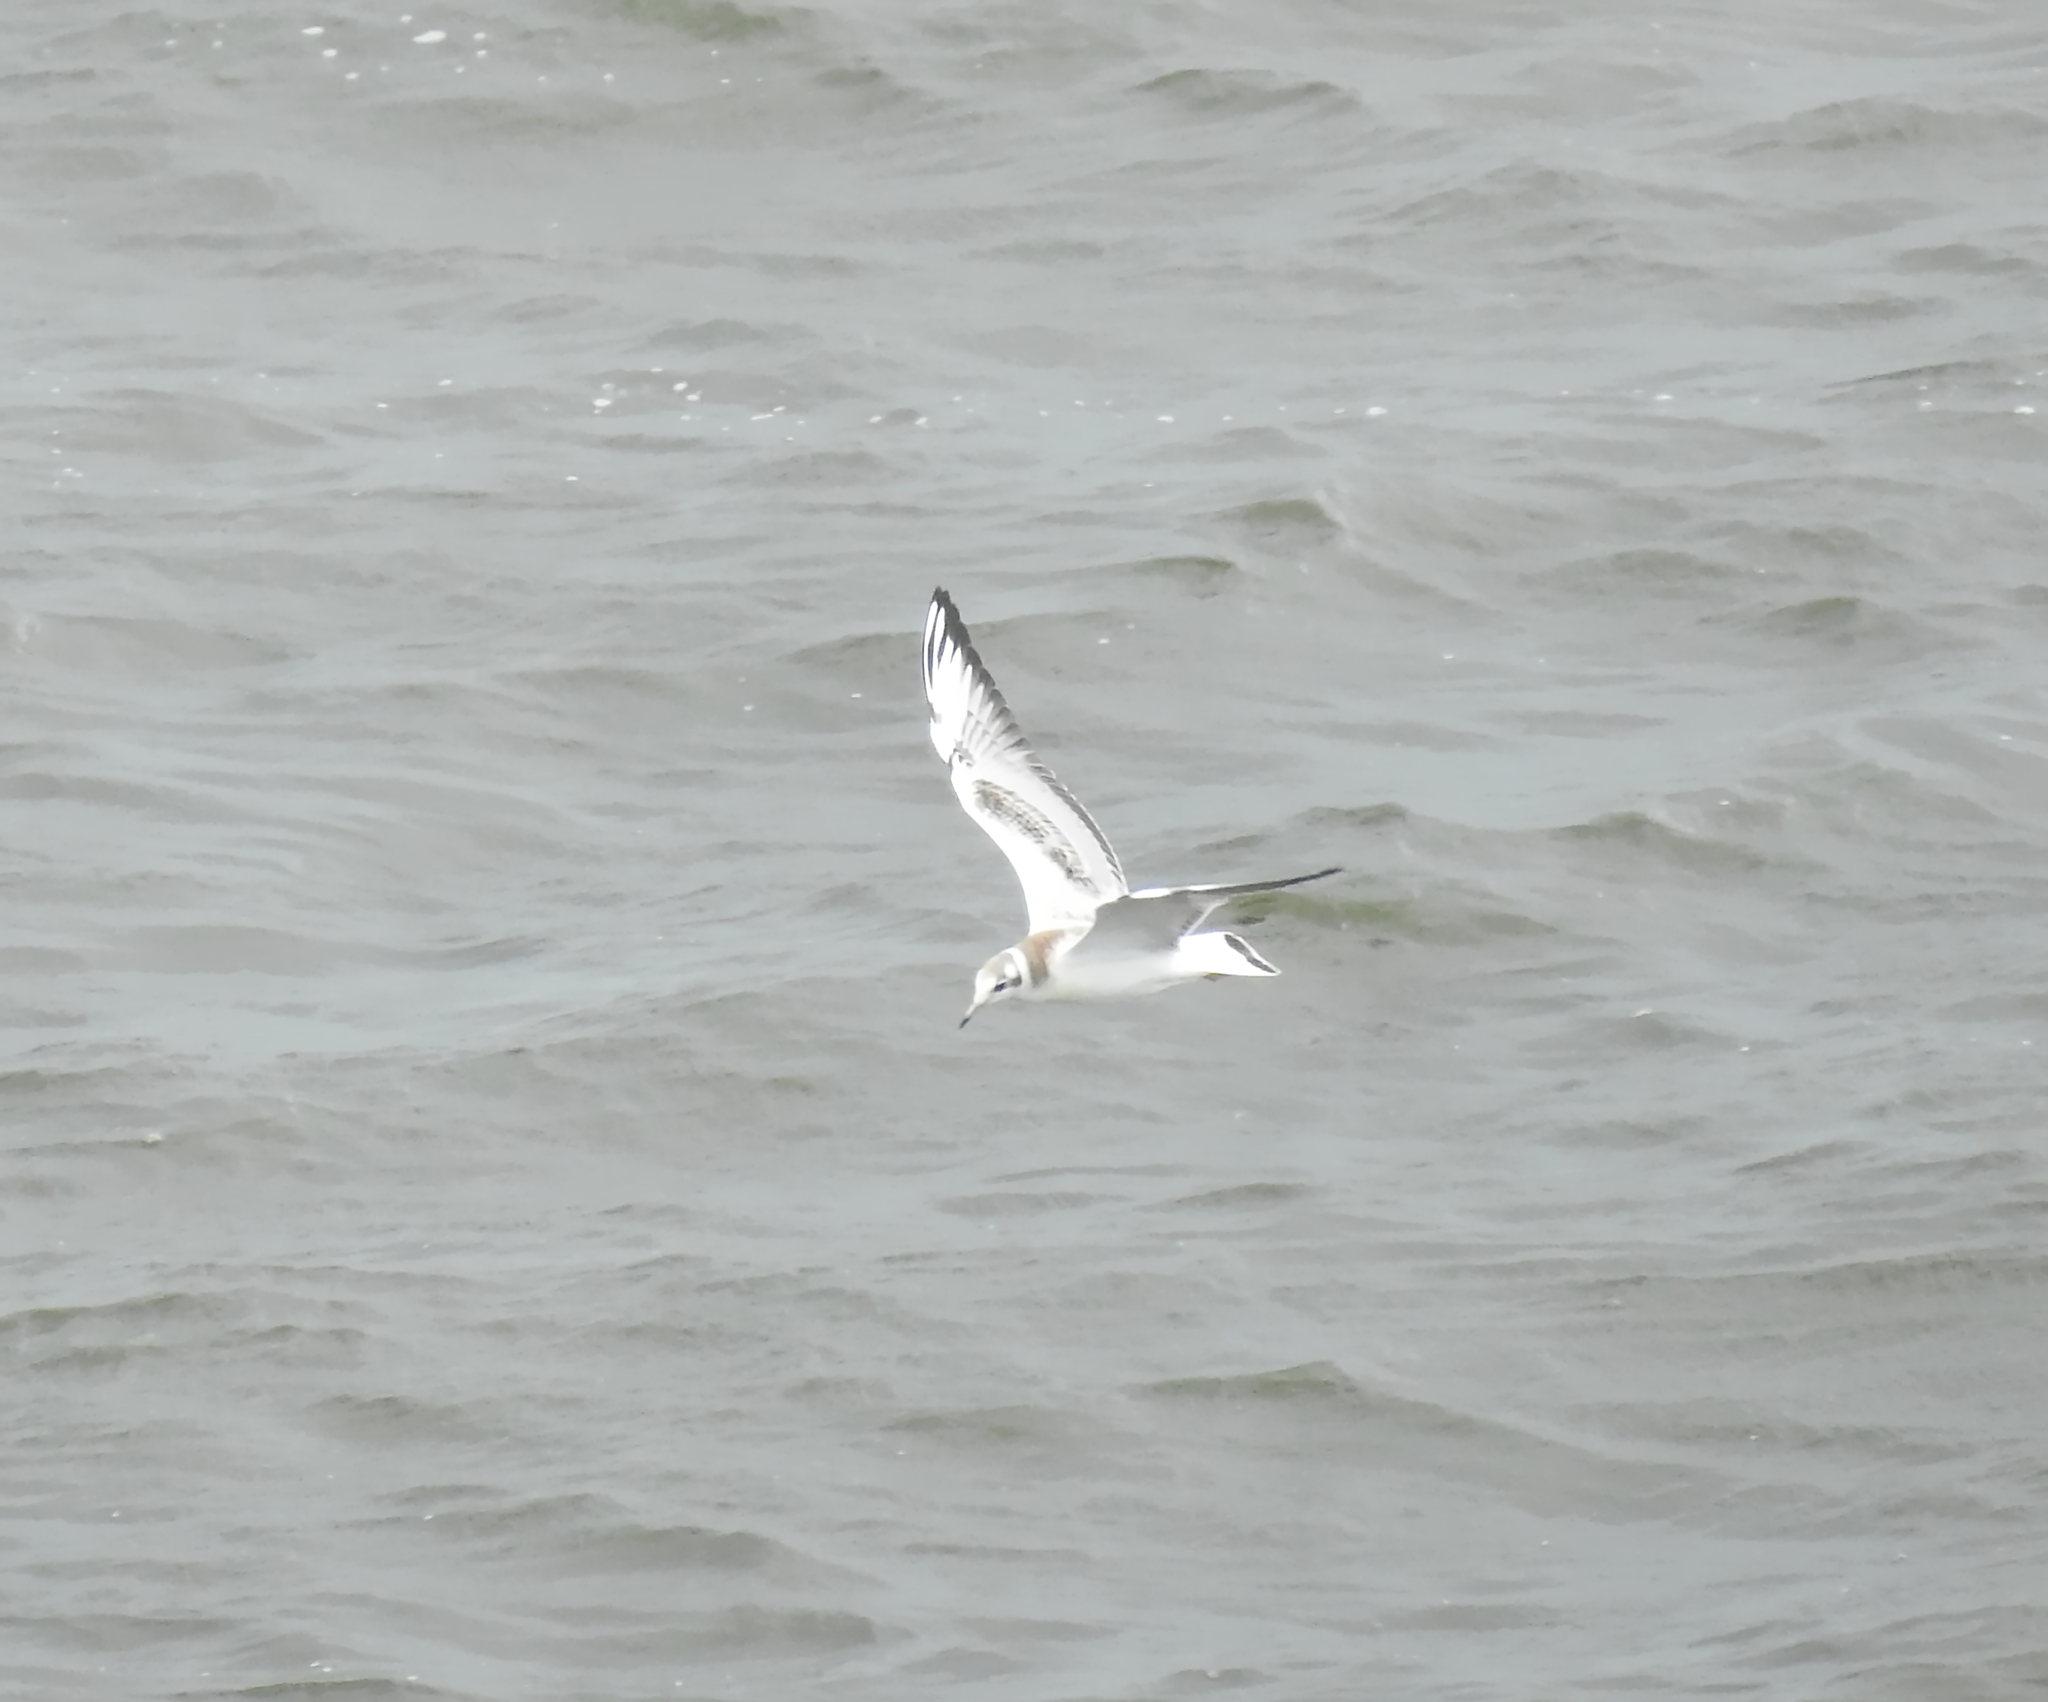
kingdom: Animalia
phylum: Chordata
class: Aves
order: Charadriiformes
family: Laridae
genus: Chroicocephalus
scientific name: Chroicocephalus ridibundus
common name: Black-headed gull
